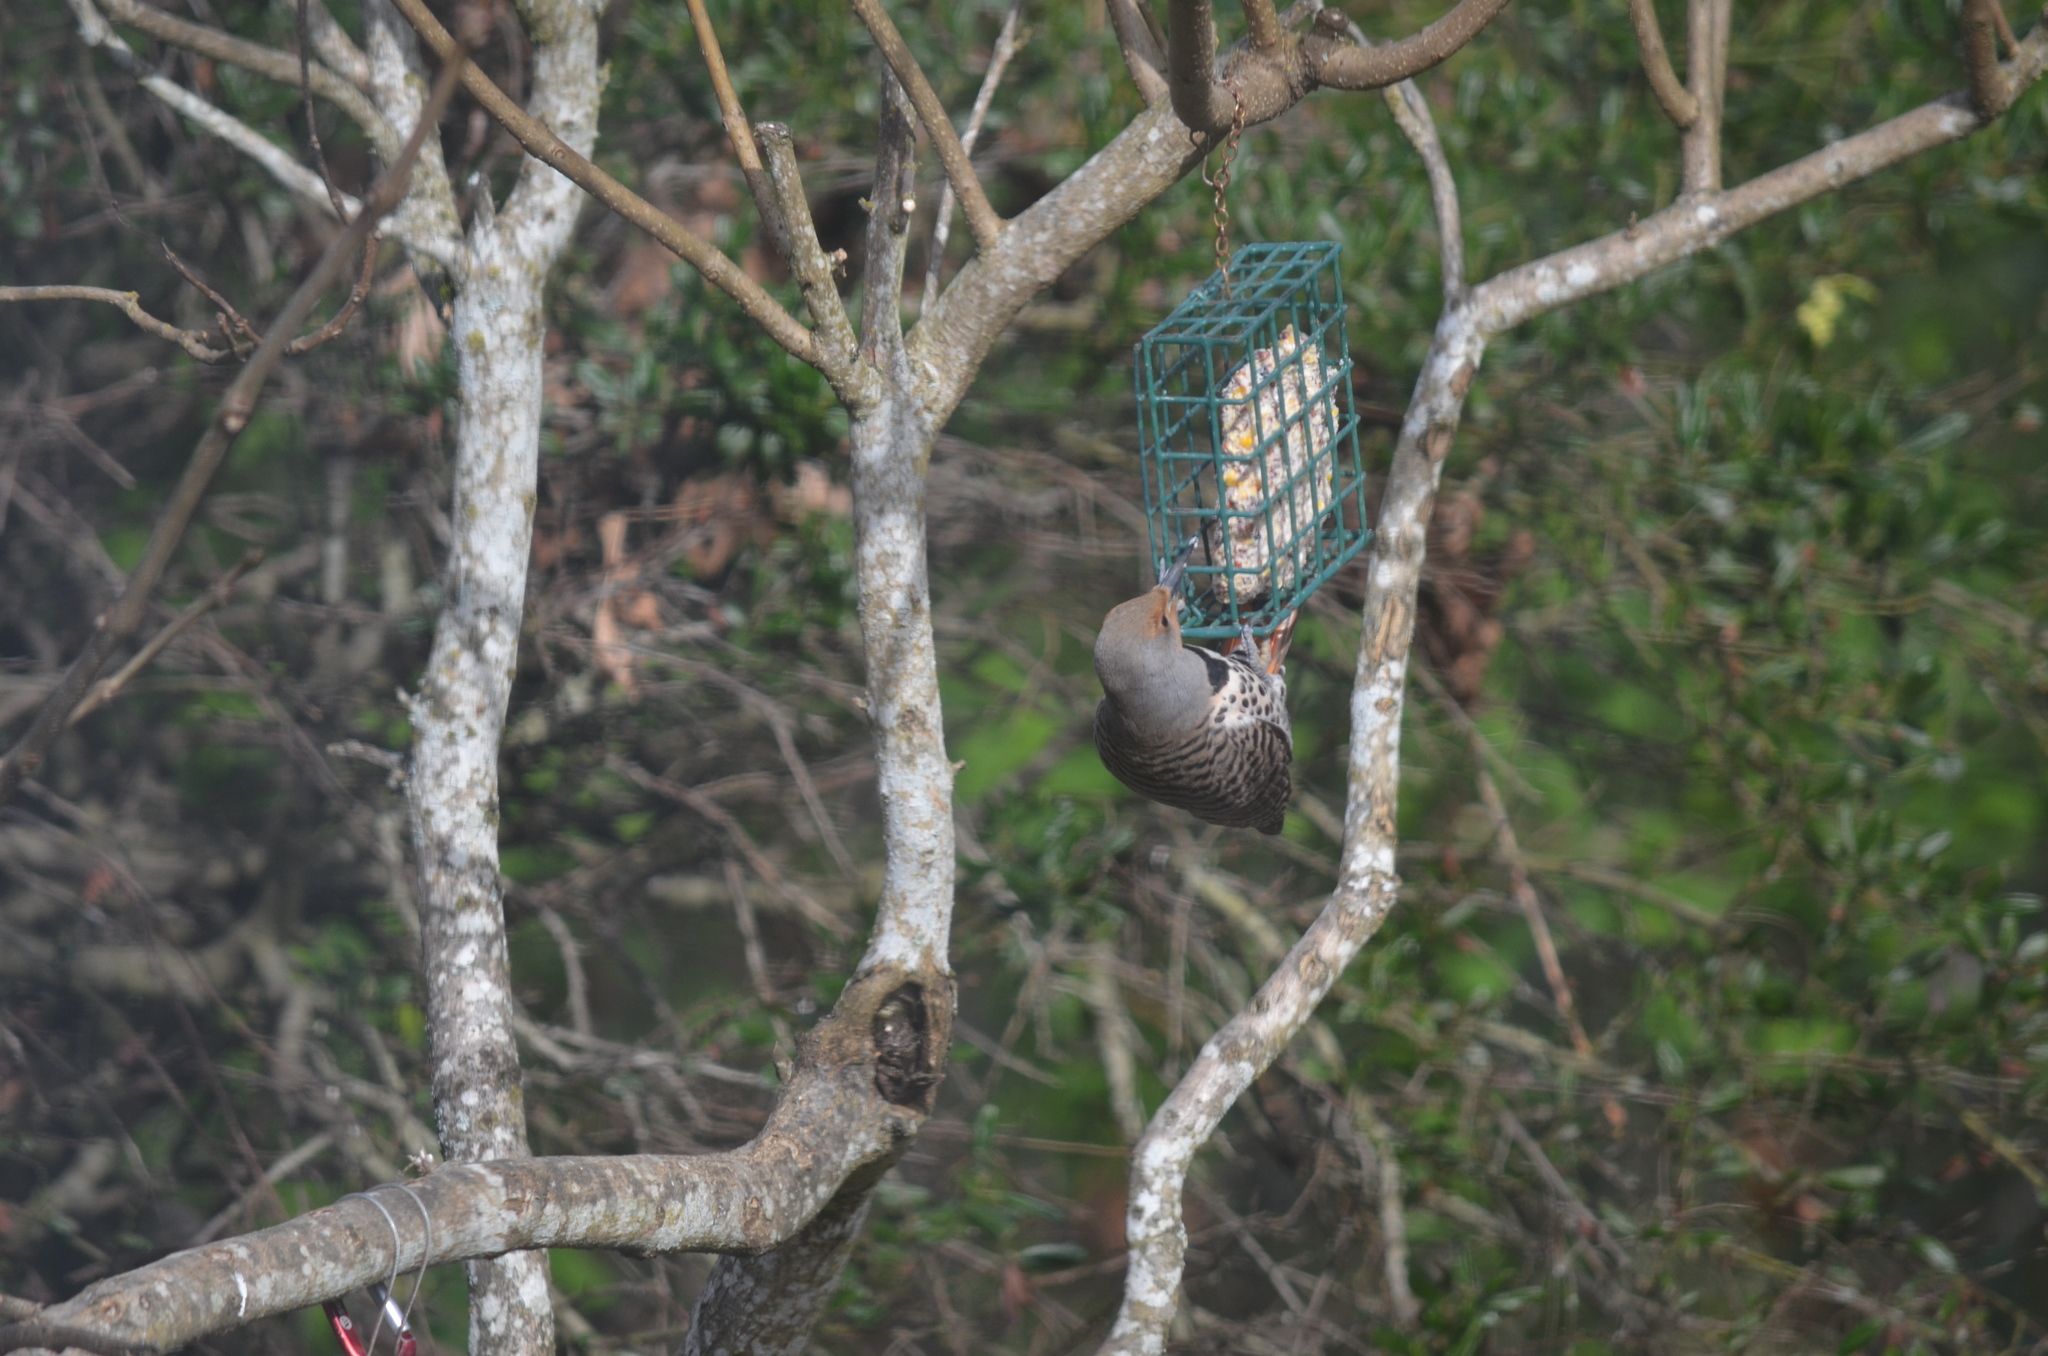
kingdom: Animalia
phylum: Chordata
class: Aves
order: Piciformes
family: Picidae
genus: Colaptes
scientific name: Colaptes auratus
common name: Northern flicker
